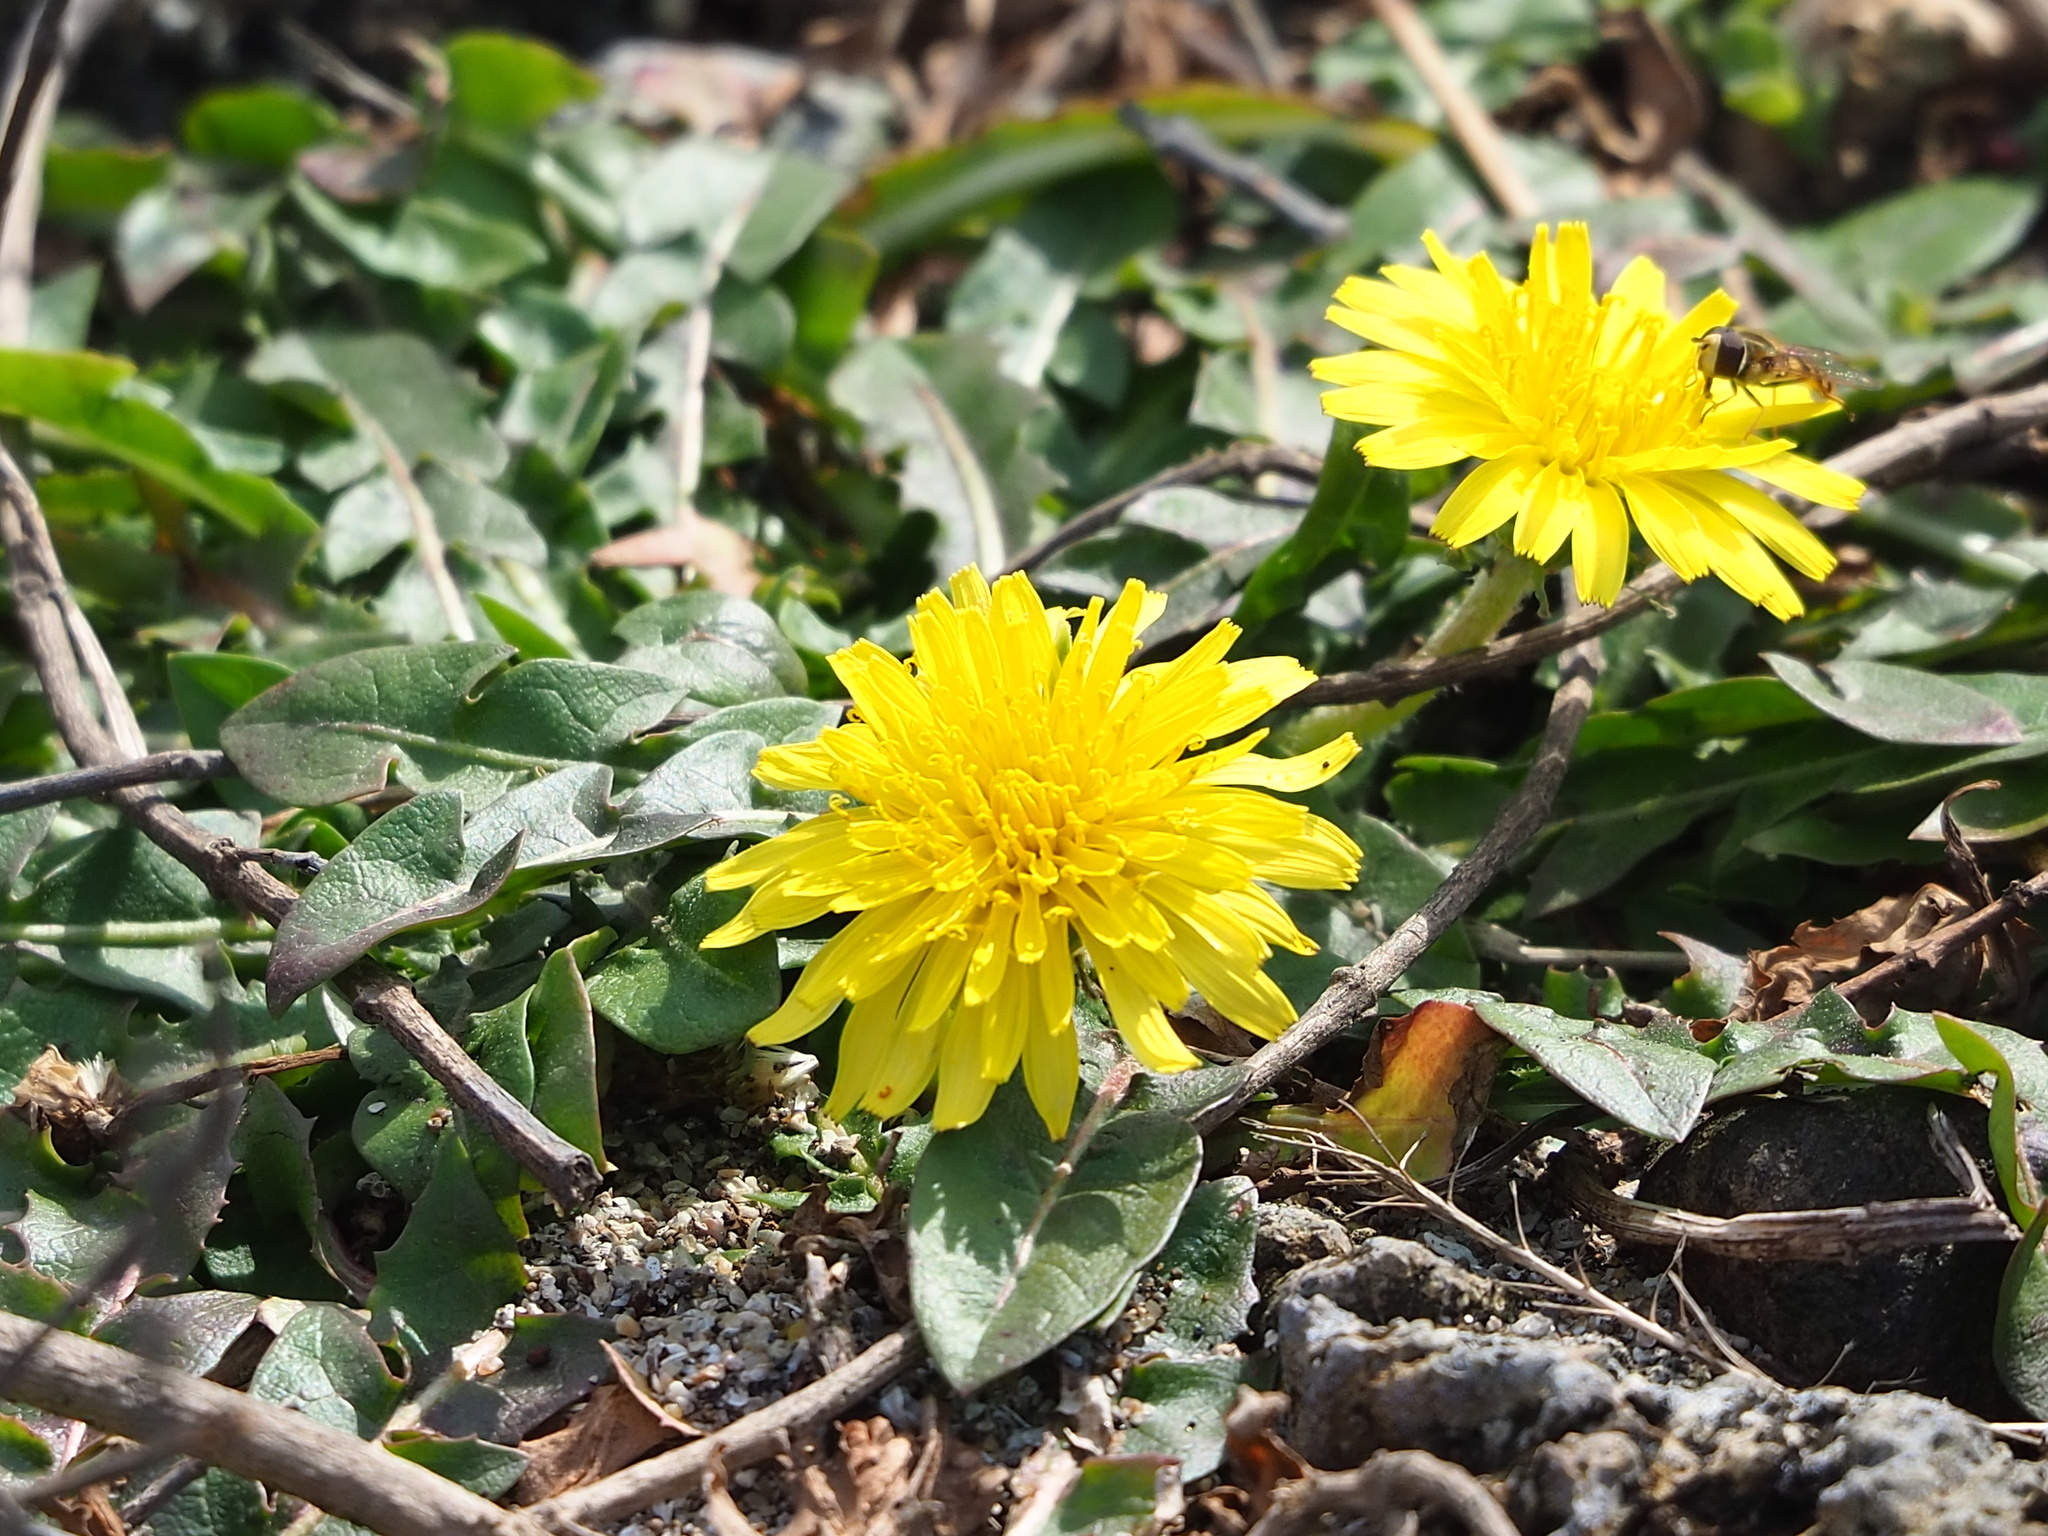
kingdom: Plantae
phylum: Tracheophyta
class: Magnoliopsida
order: Asterales
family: Asteraceae
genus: Taraxacum
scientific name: Taraxacum formosanum
